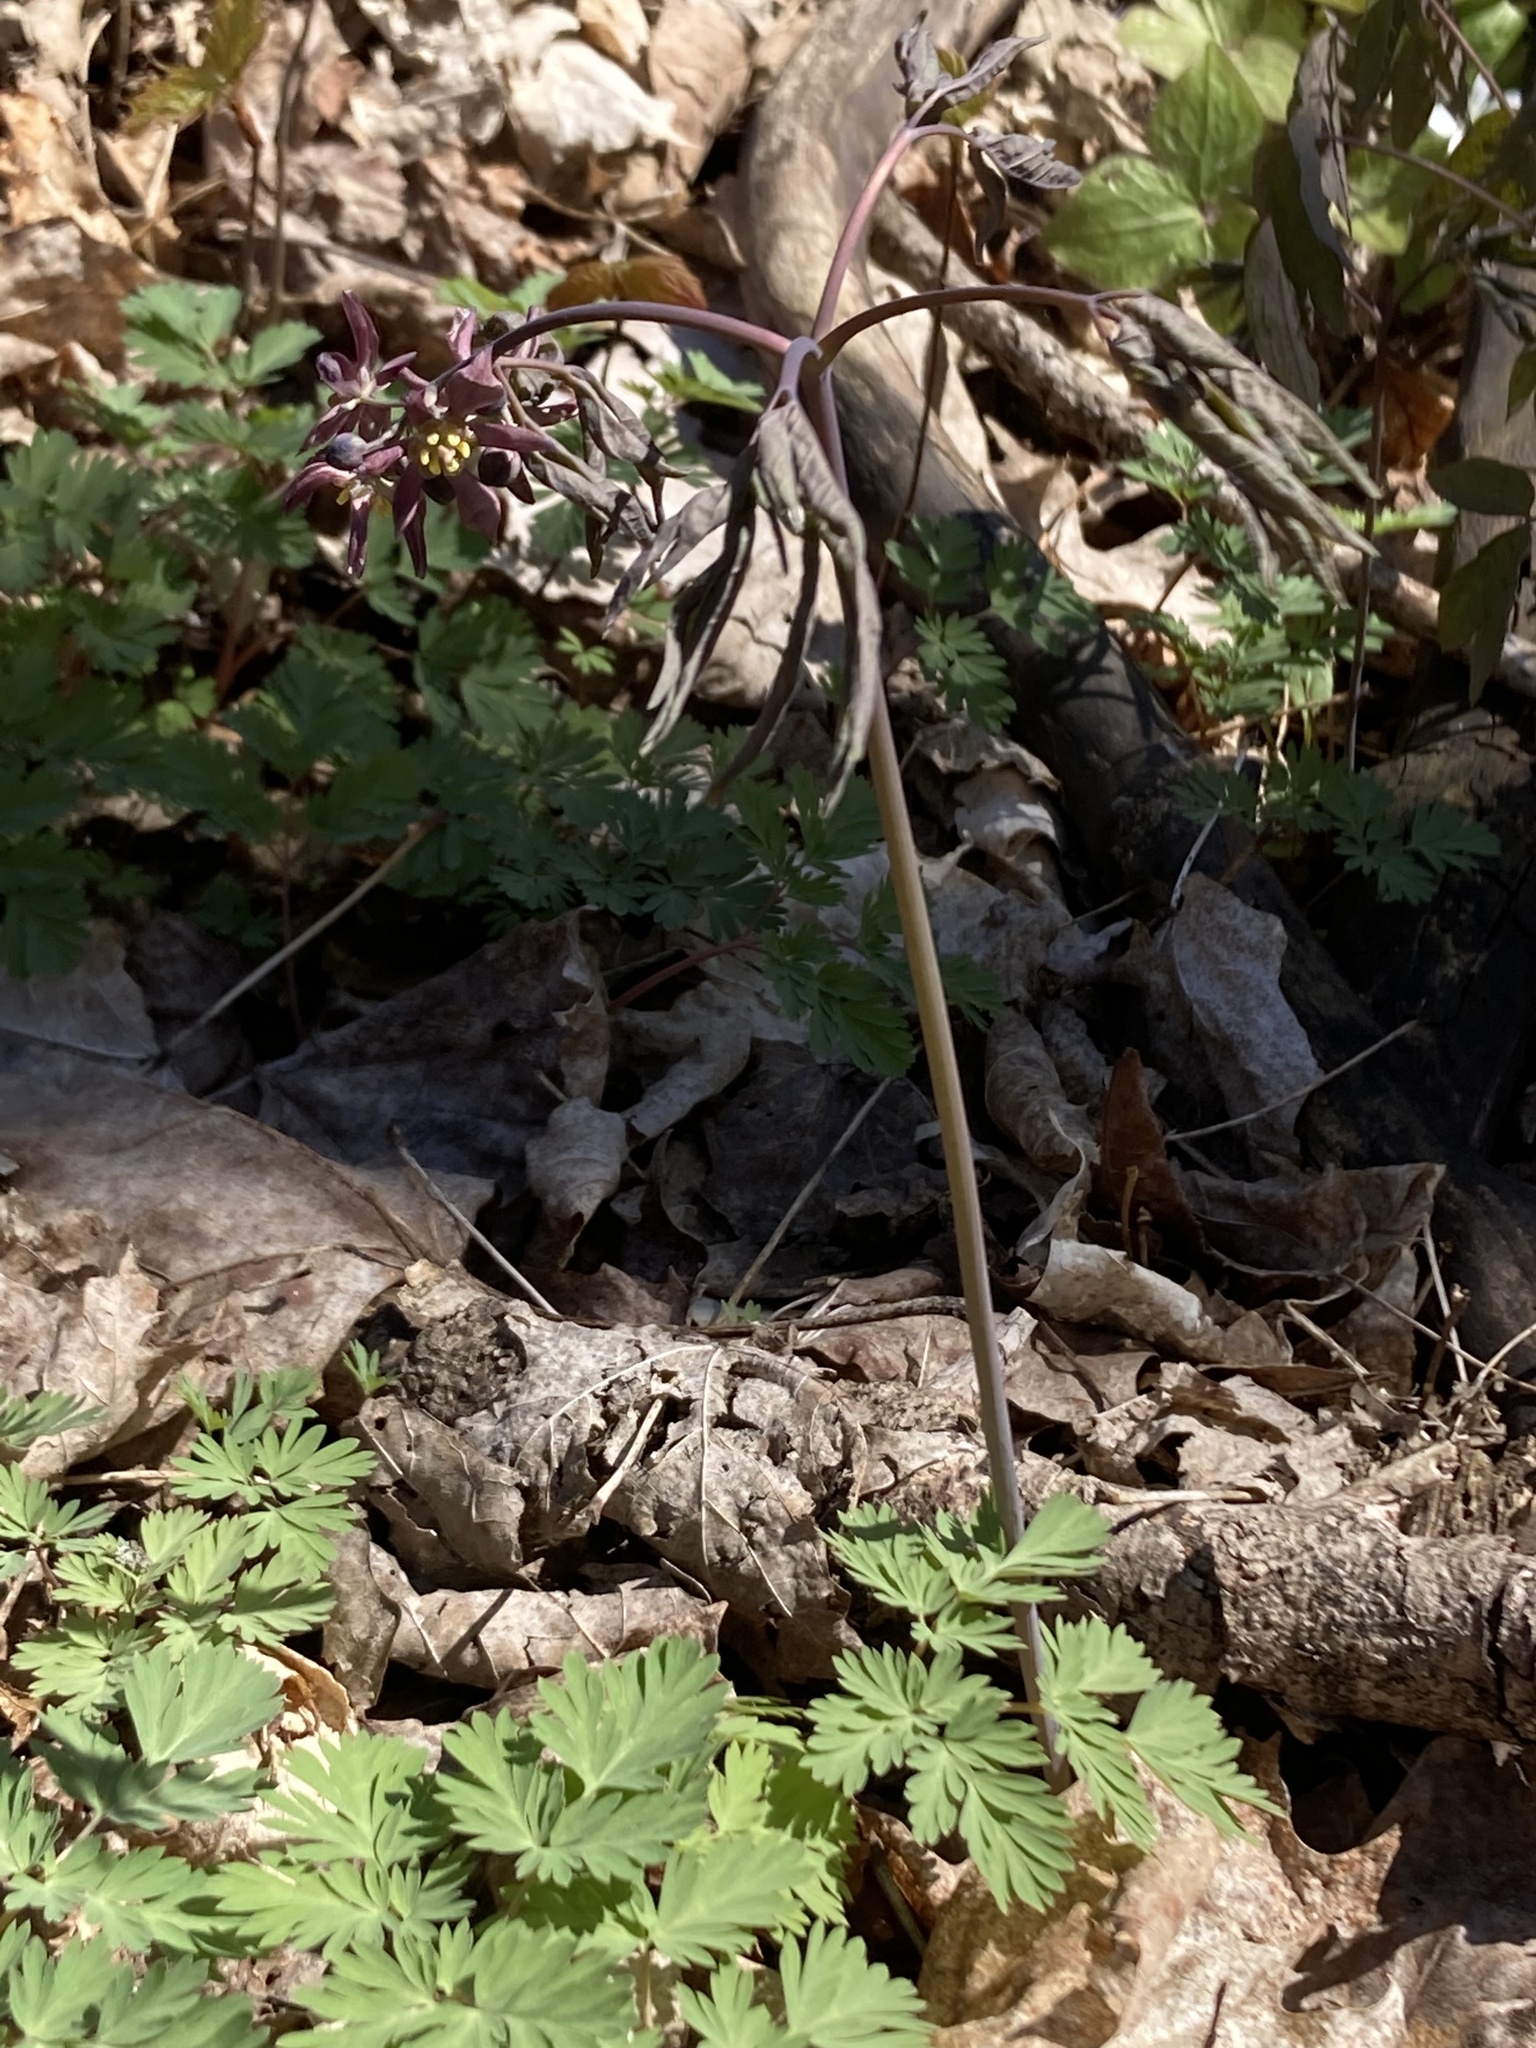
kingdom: Plantae
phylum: Tracheophyta
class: Magnoliopsida
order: Ranunculales
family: Berberidaceae
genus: Caulophyllum
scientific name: Caulophyllum giganteum
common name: Blue cohosh
